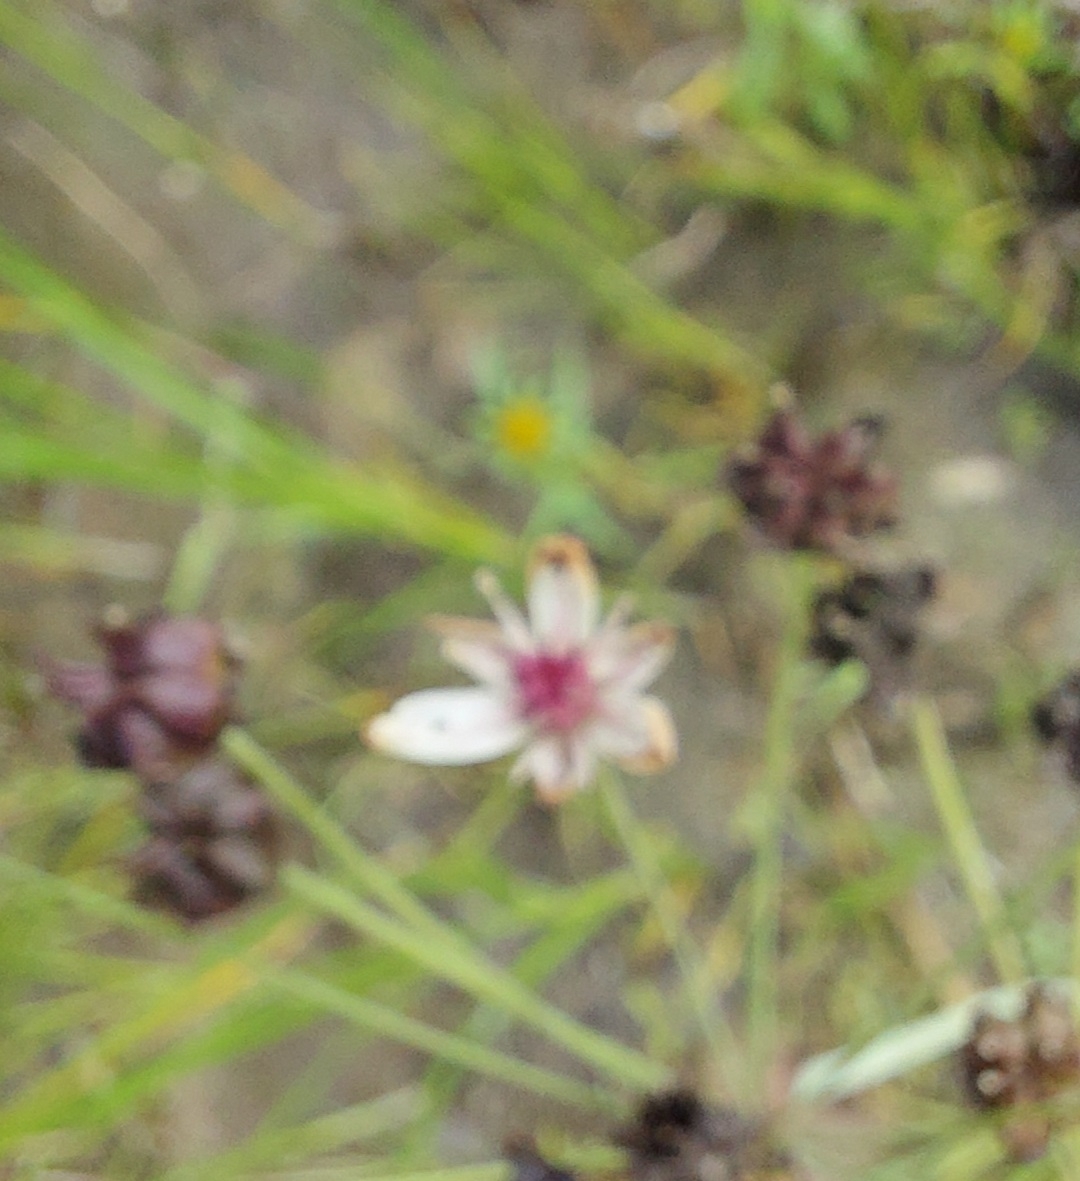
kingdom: Plantae
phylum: Tracheophyta
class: Liliopsida
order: Alismatales
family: Butomaceae
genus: Butomus
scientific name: Butomus umbellatus
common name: Flowering-rush
